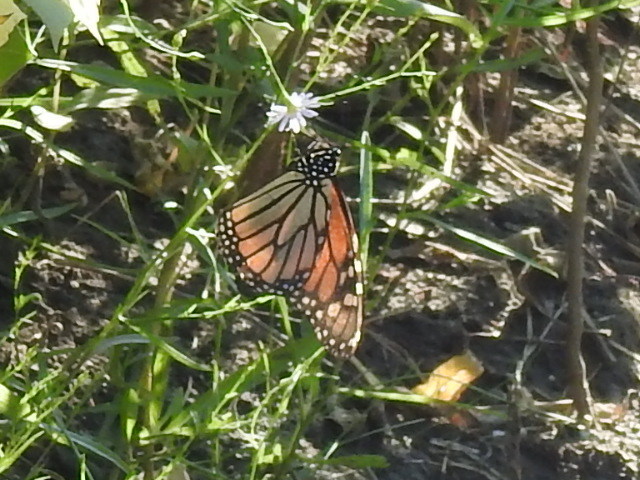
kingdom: Animalia
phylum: Arthropoda
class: Insecta
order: Lepidoptera
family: Nymphalidae
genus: Danaus
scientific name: Danaus plexippus
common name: Monarch
